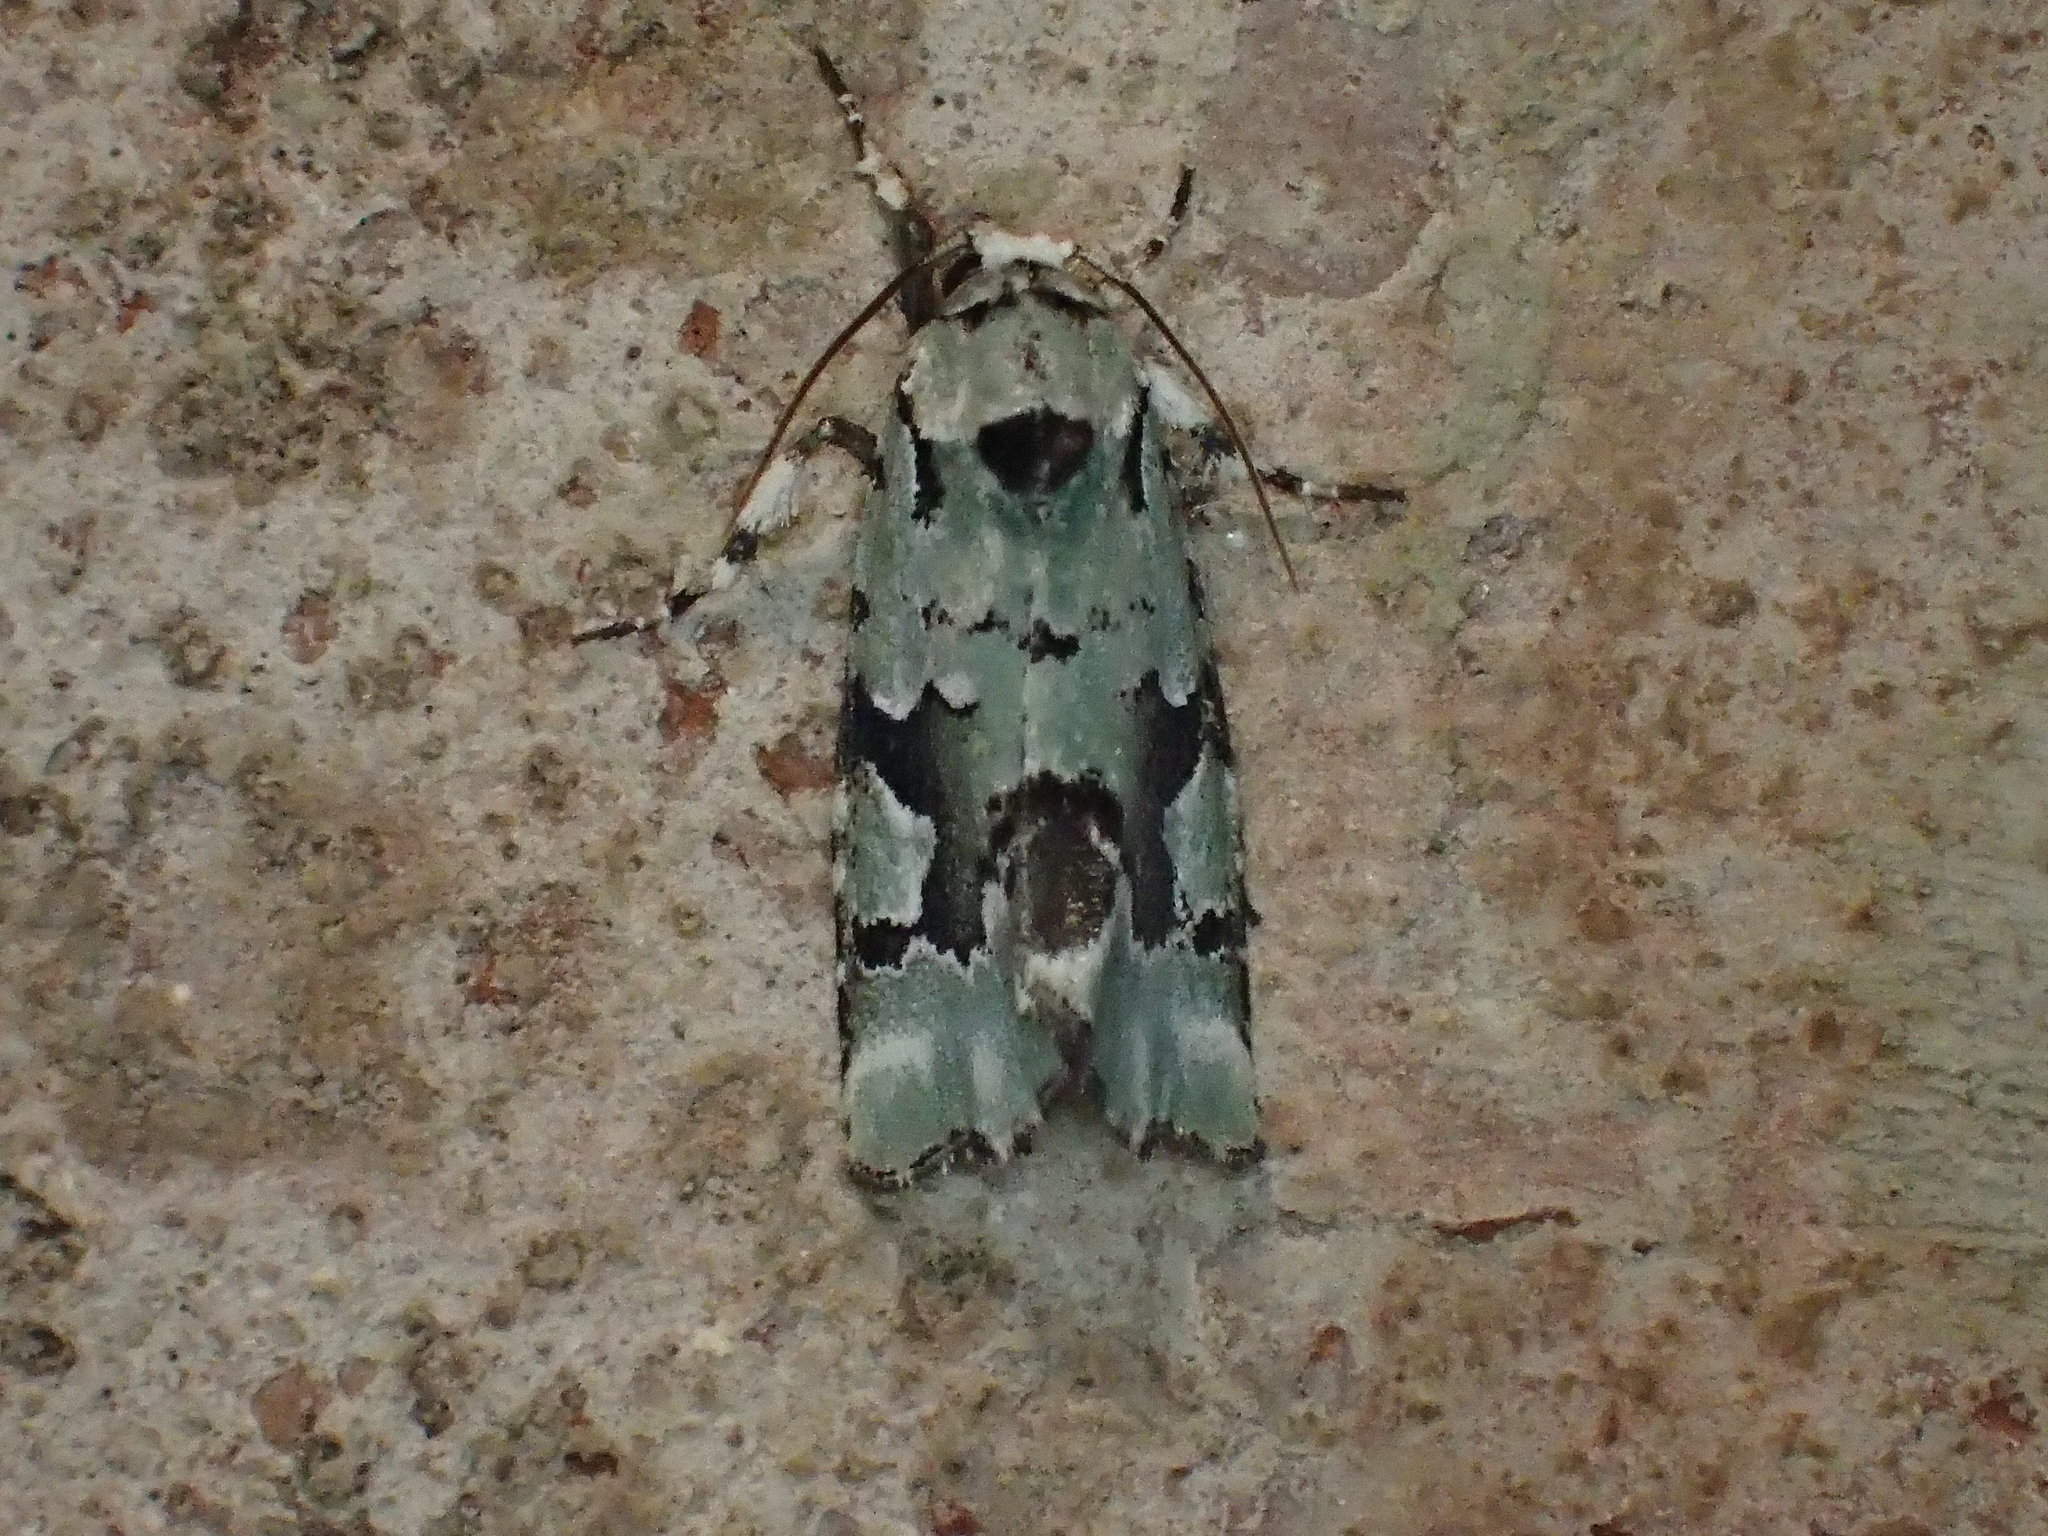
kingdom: Animalia
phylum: Arthropoda
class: Insecta
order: Lepidoptera
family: Noctuidae
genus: Emarginea
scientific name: Emarginea percara
